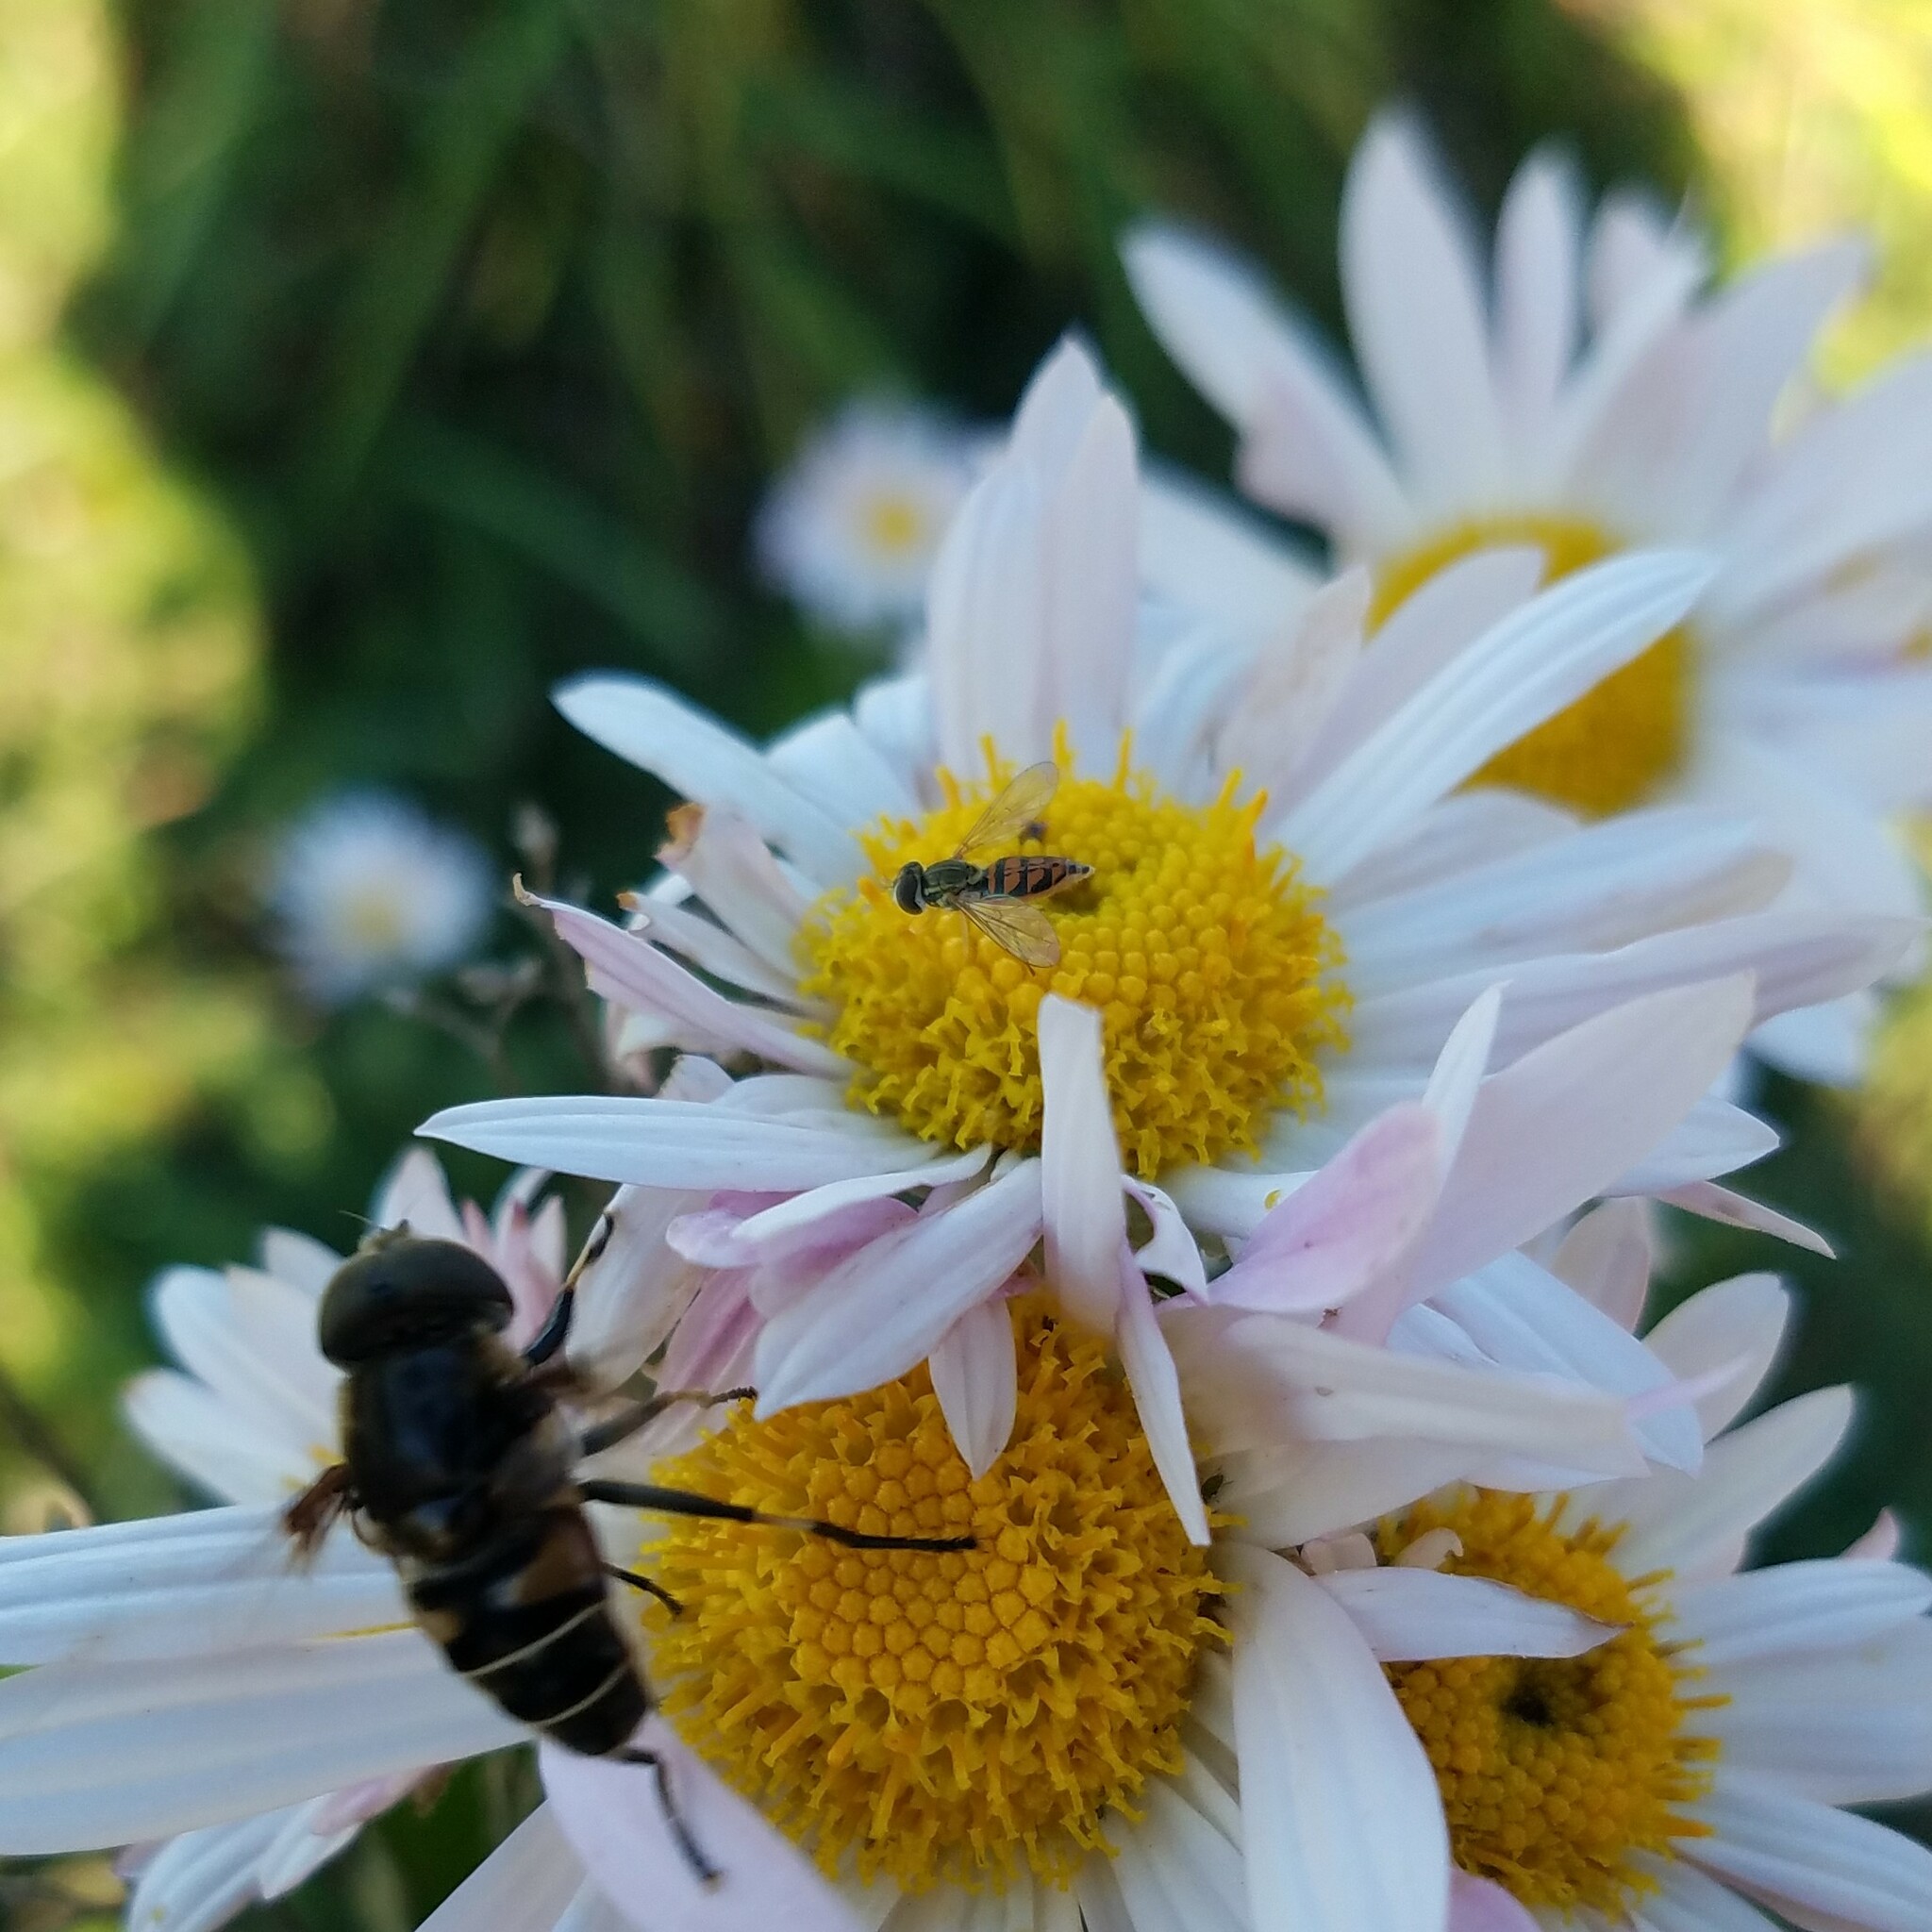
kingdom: Animalia
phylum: Arthropoda
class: Insecta
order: Diptera
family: Syrphidae
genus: Toxomerus
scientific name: Toxomerus marginatus
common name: Syrphid fly
